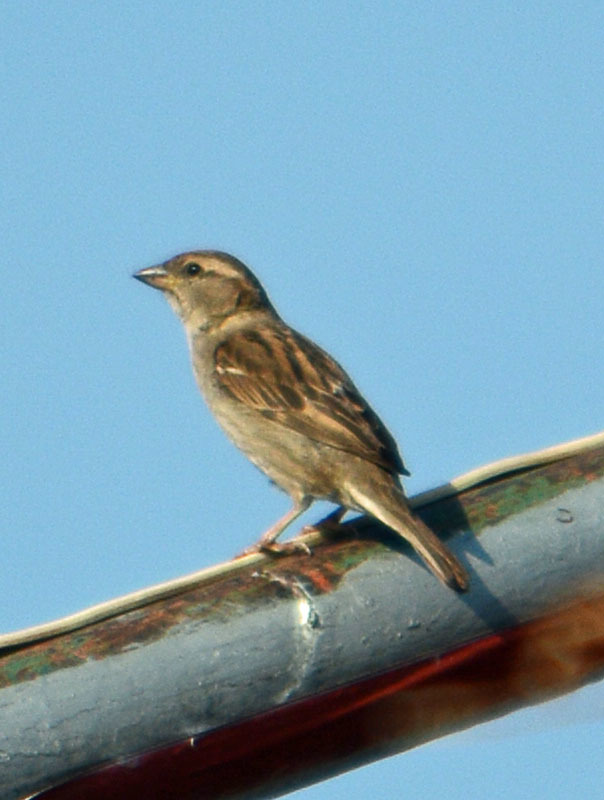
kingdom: Animalia
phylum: Chordata
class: Aves
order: Passeriformes
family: Passeridae
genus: Passer
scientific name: Passer domesticus
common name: House sparrow
